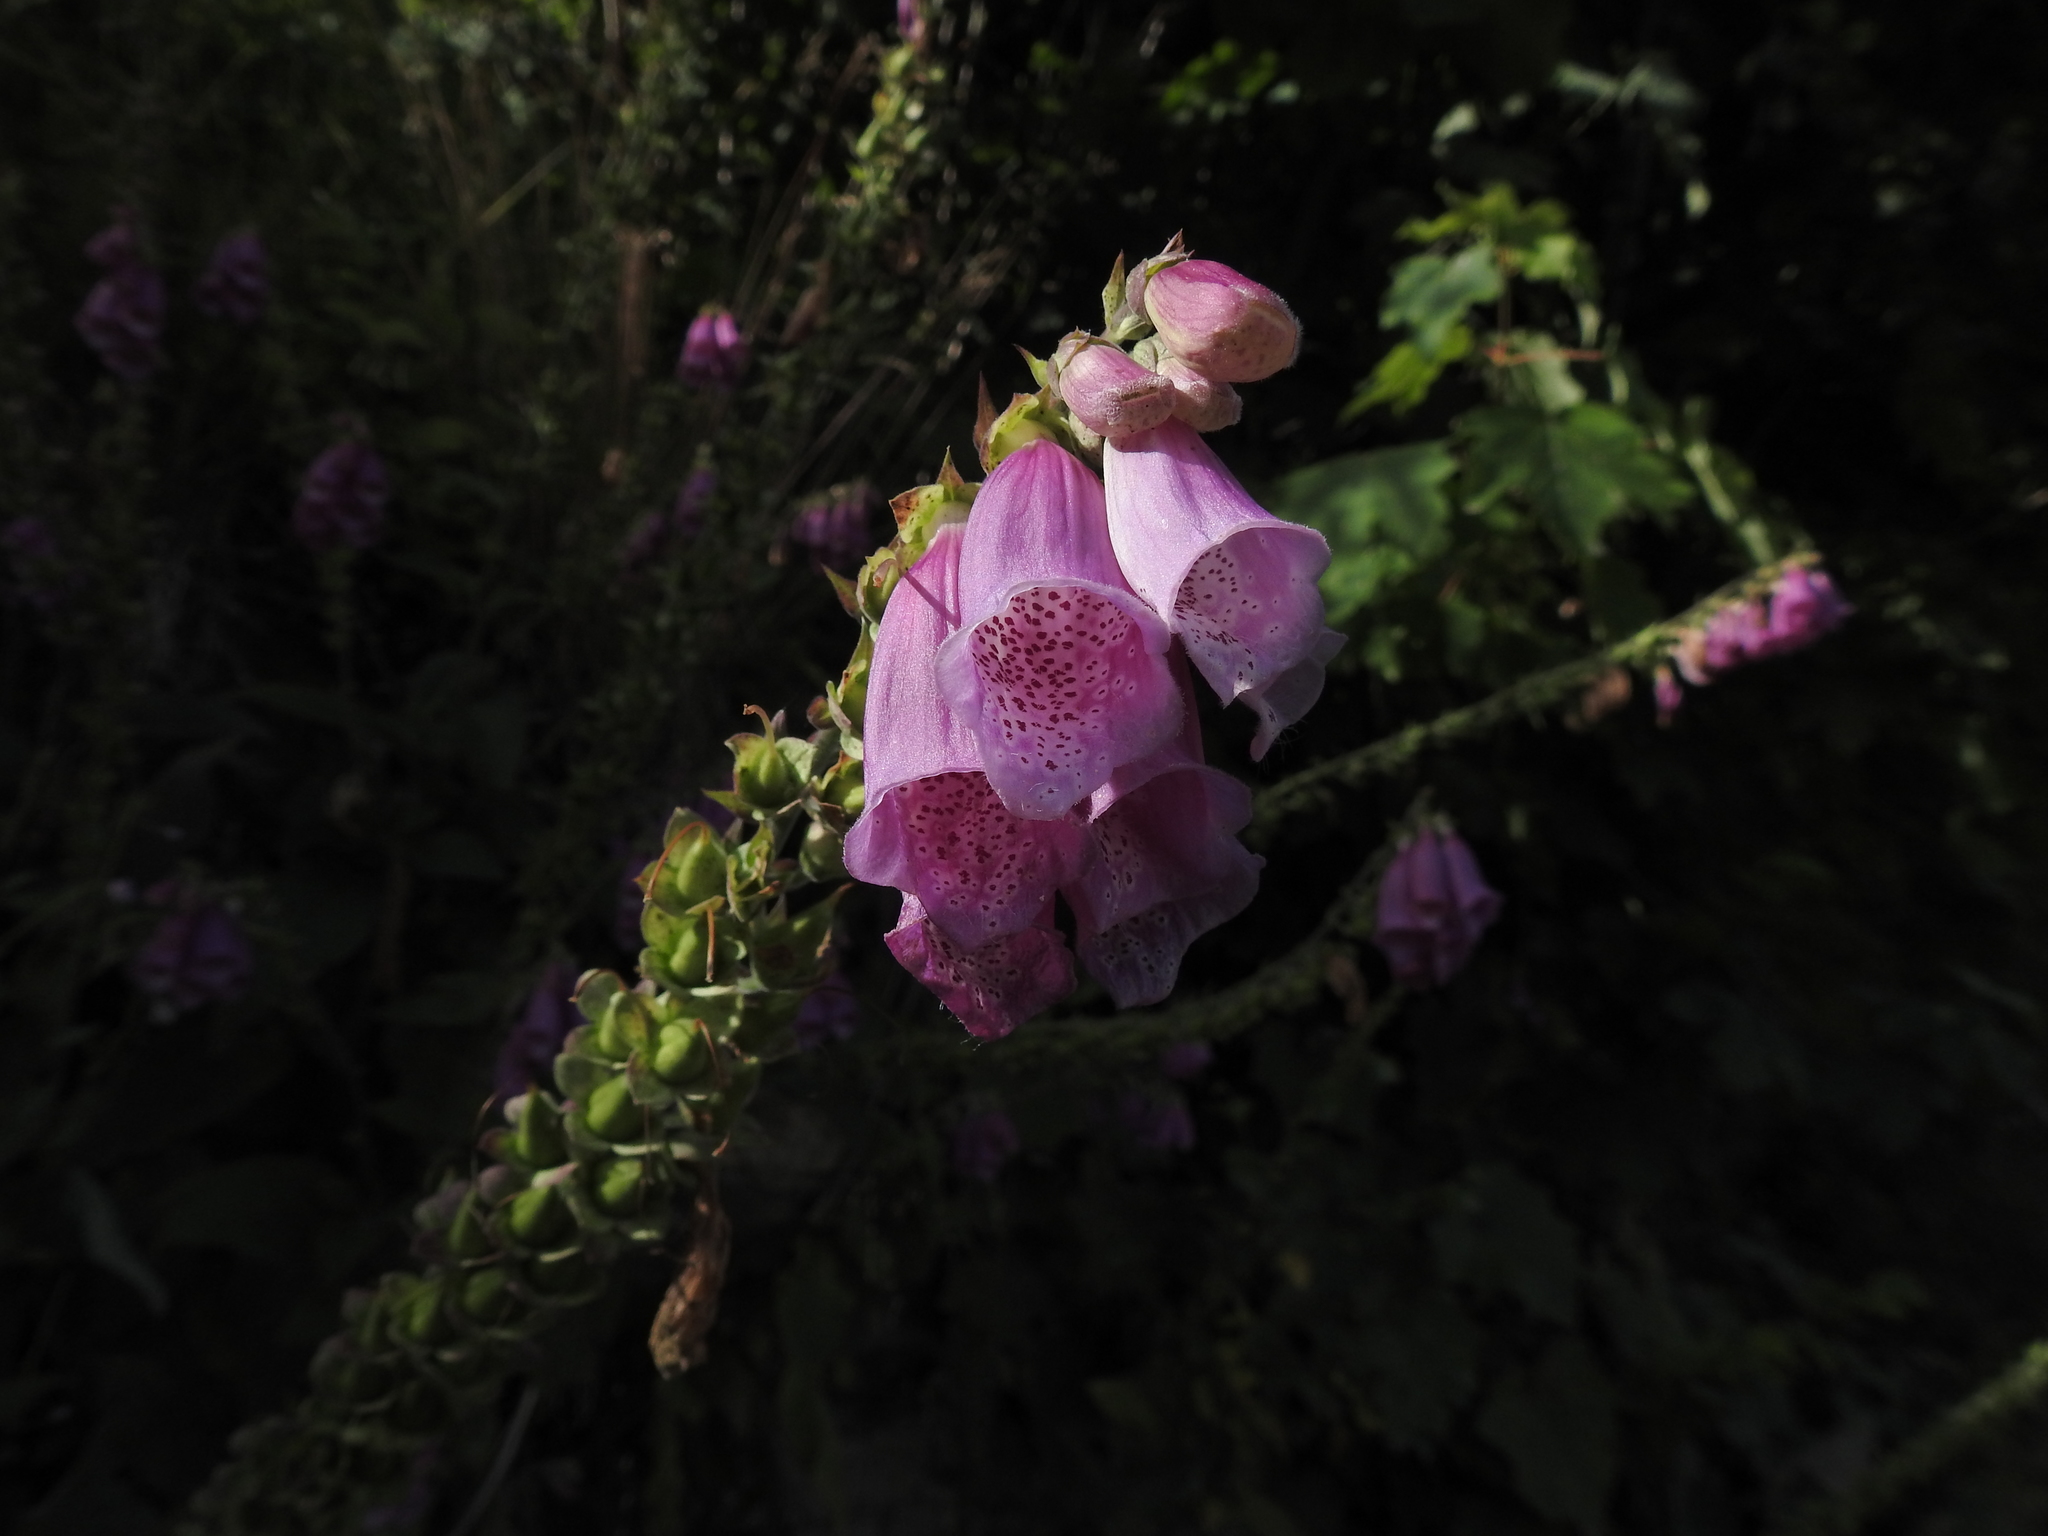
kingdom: Plantae
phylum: Tracheophyta
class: Magnoliopsida
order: Lamiales
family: Plantaginaceae
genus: Digitalis
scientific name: Digitalis purpurea
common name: Foxglove
